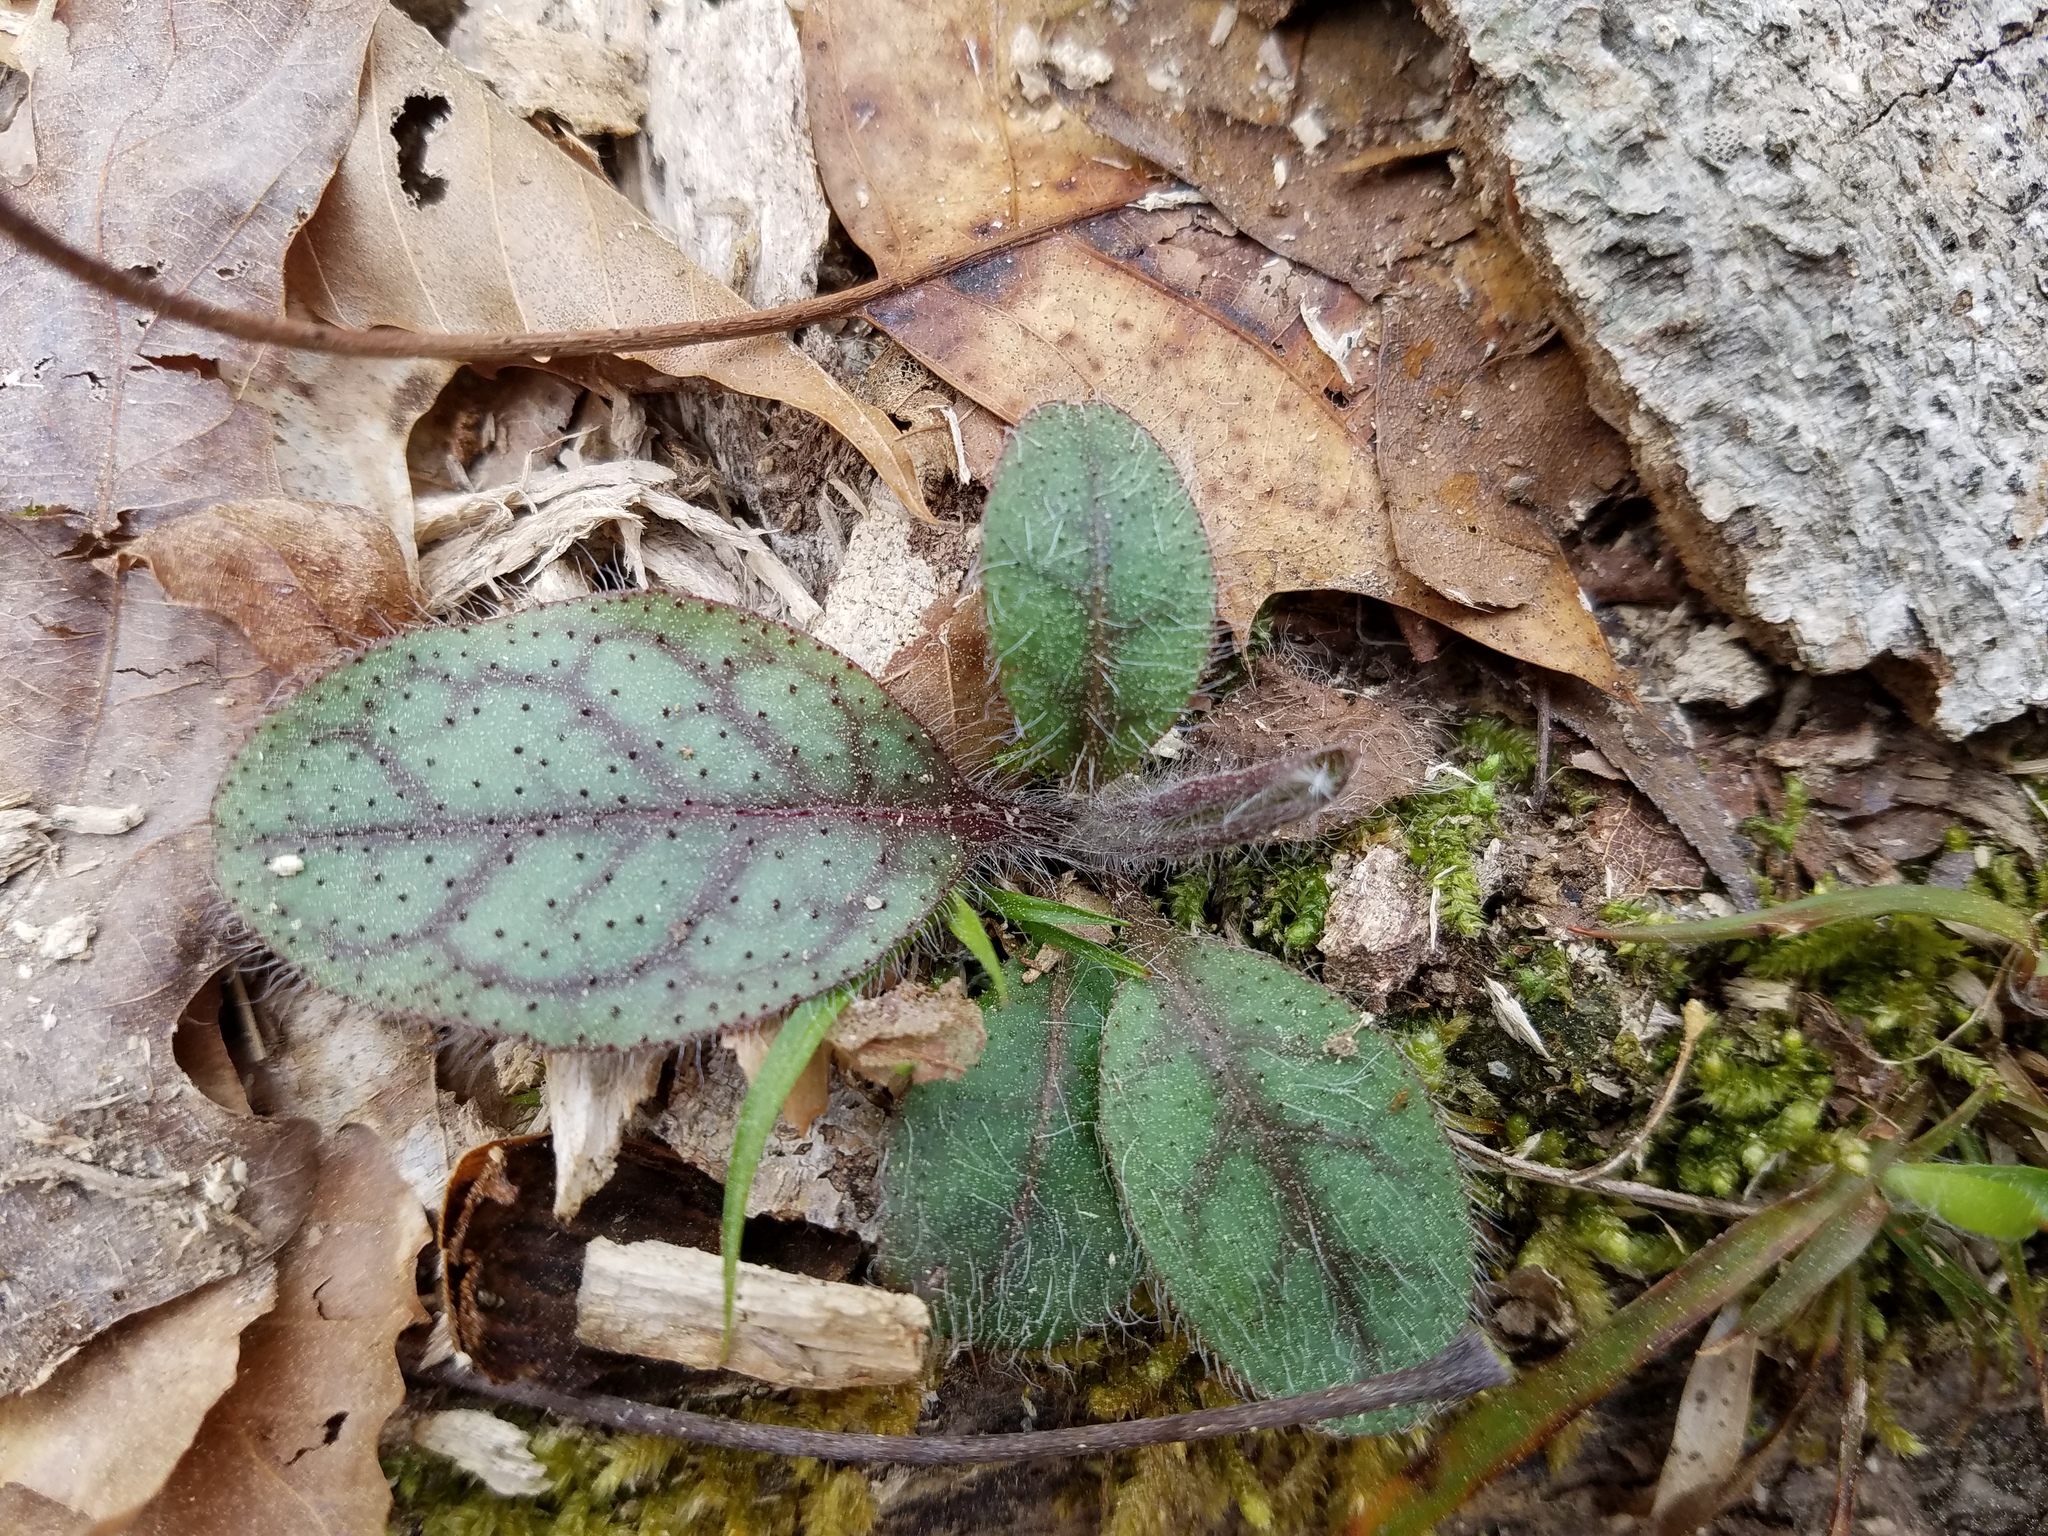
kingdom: Plantae
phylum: Tracheophyta
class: Magnoliopsida
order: Asterales
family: Asteraceae
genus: Hieracium
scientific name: Hieracium venosum
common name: Rattlesnake hawkweed
